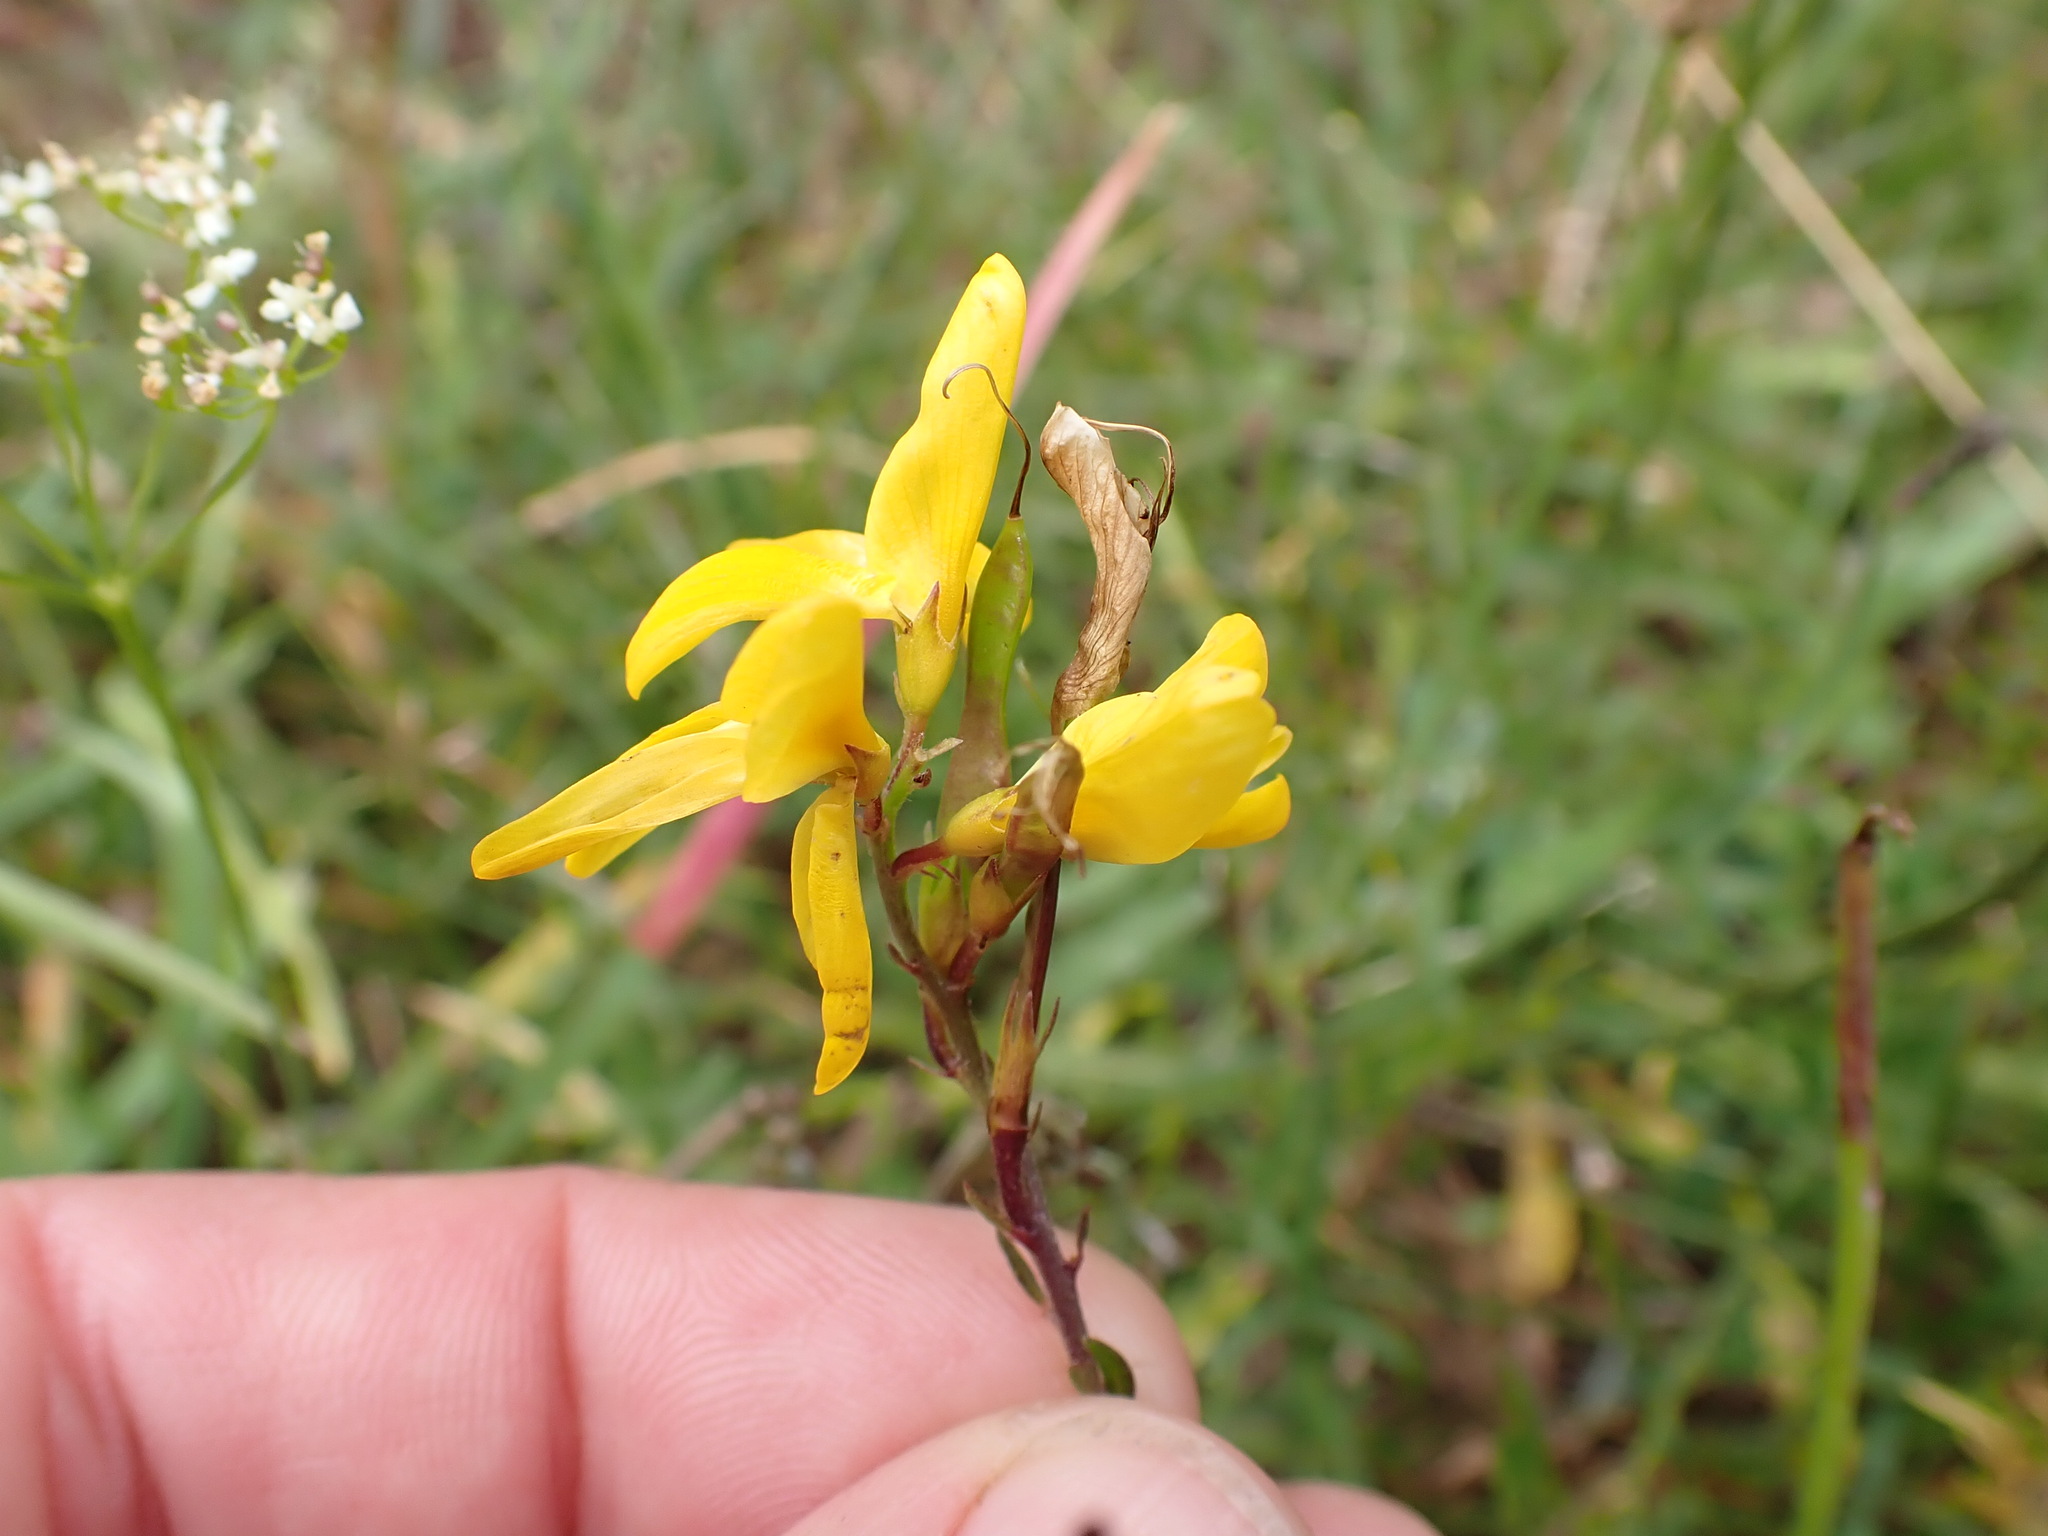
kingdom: Plantae
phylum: Tracheophyta
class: Magnoliopsida
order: Fabales
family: Fabaceae
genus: Genista
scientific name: Genista tinctoria
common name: Dyer's greenweed
